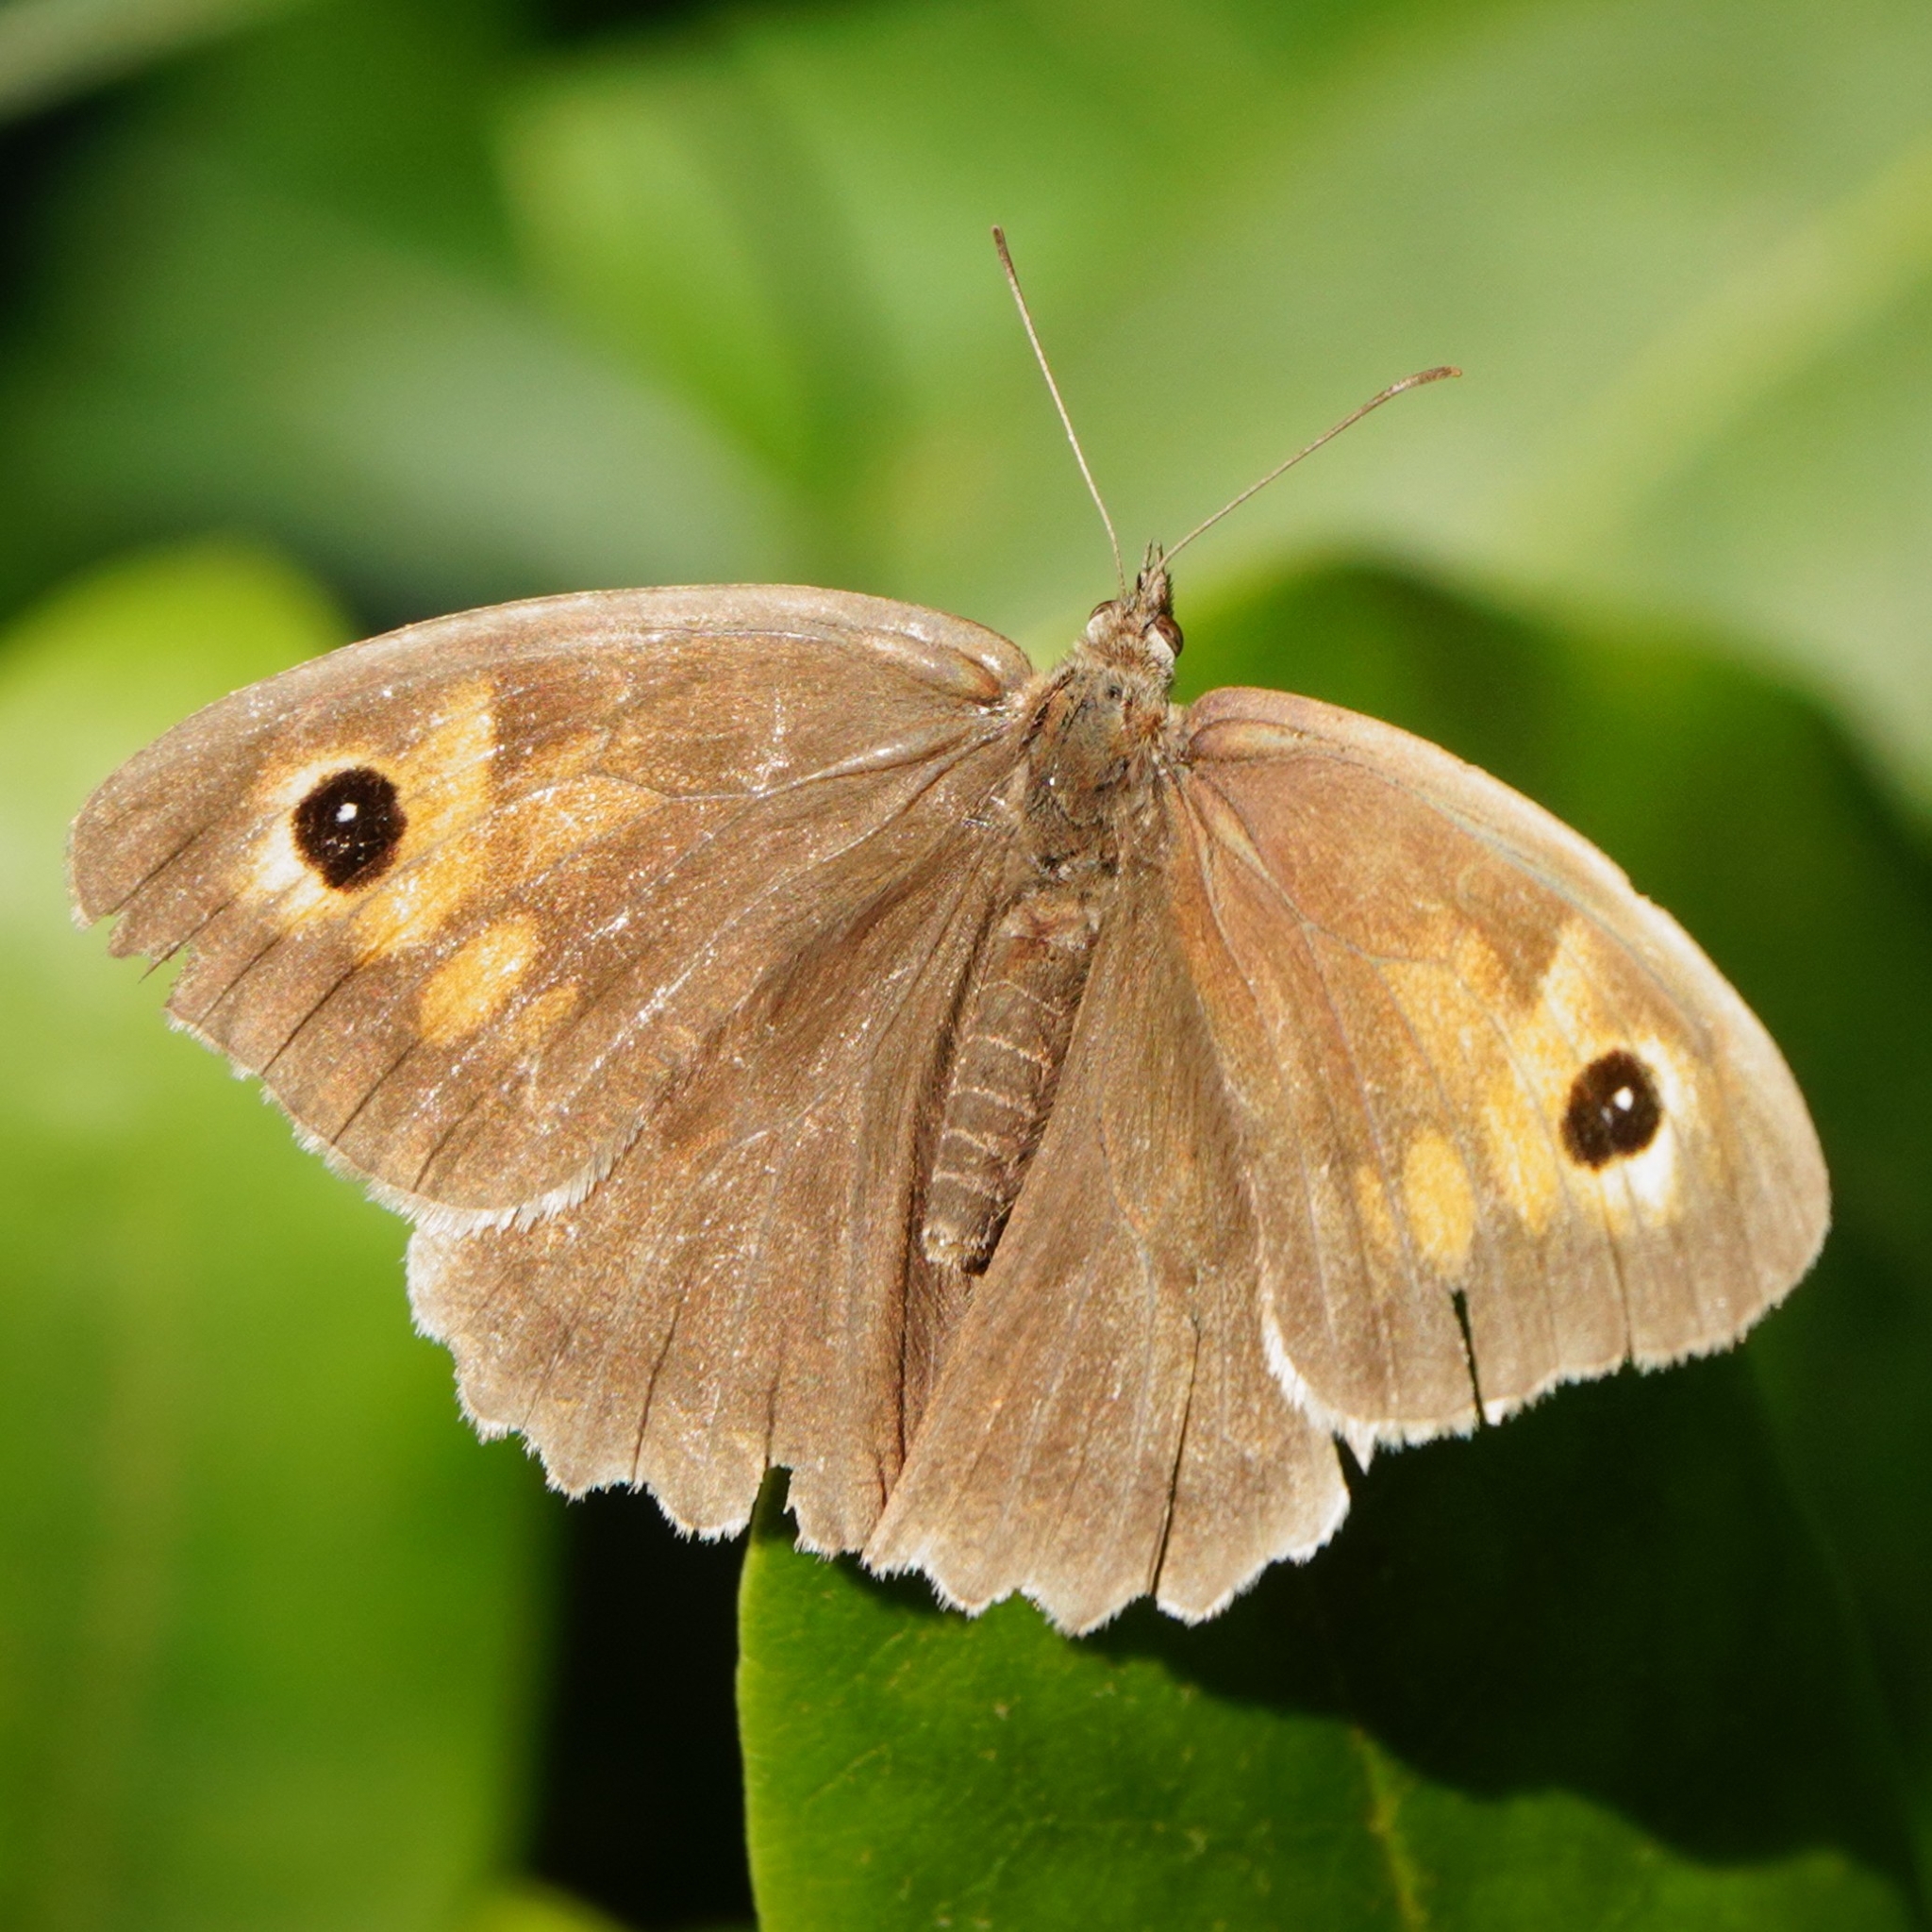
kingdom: Animalia
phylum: Arthropoda
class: Insecta
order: Lepidoptera
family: Nymphalidae
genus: Maniola
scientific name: Maniola jurtina
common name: Meadow brown
